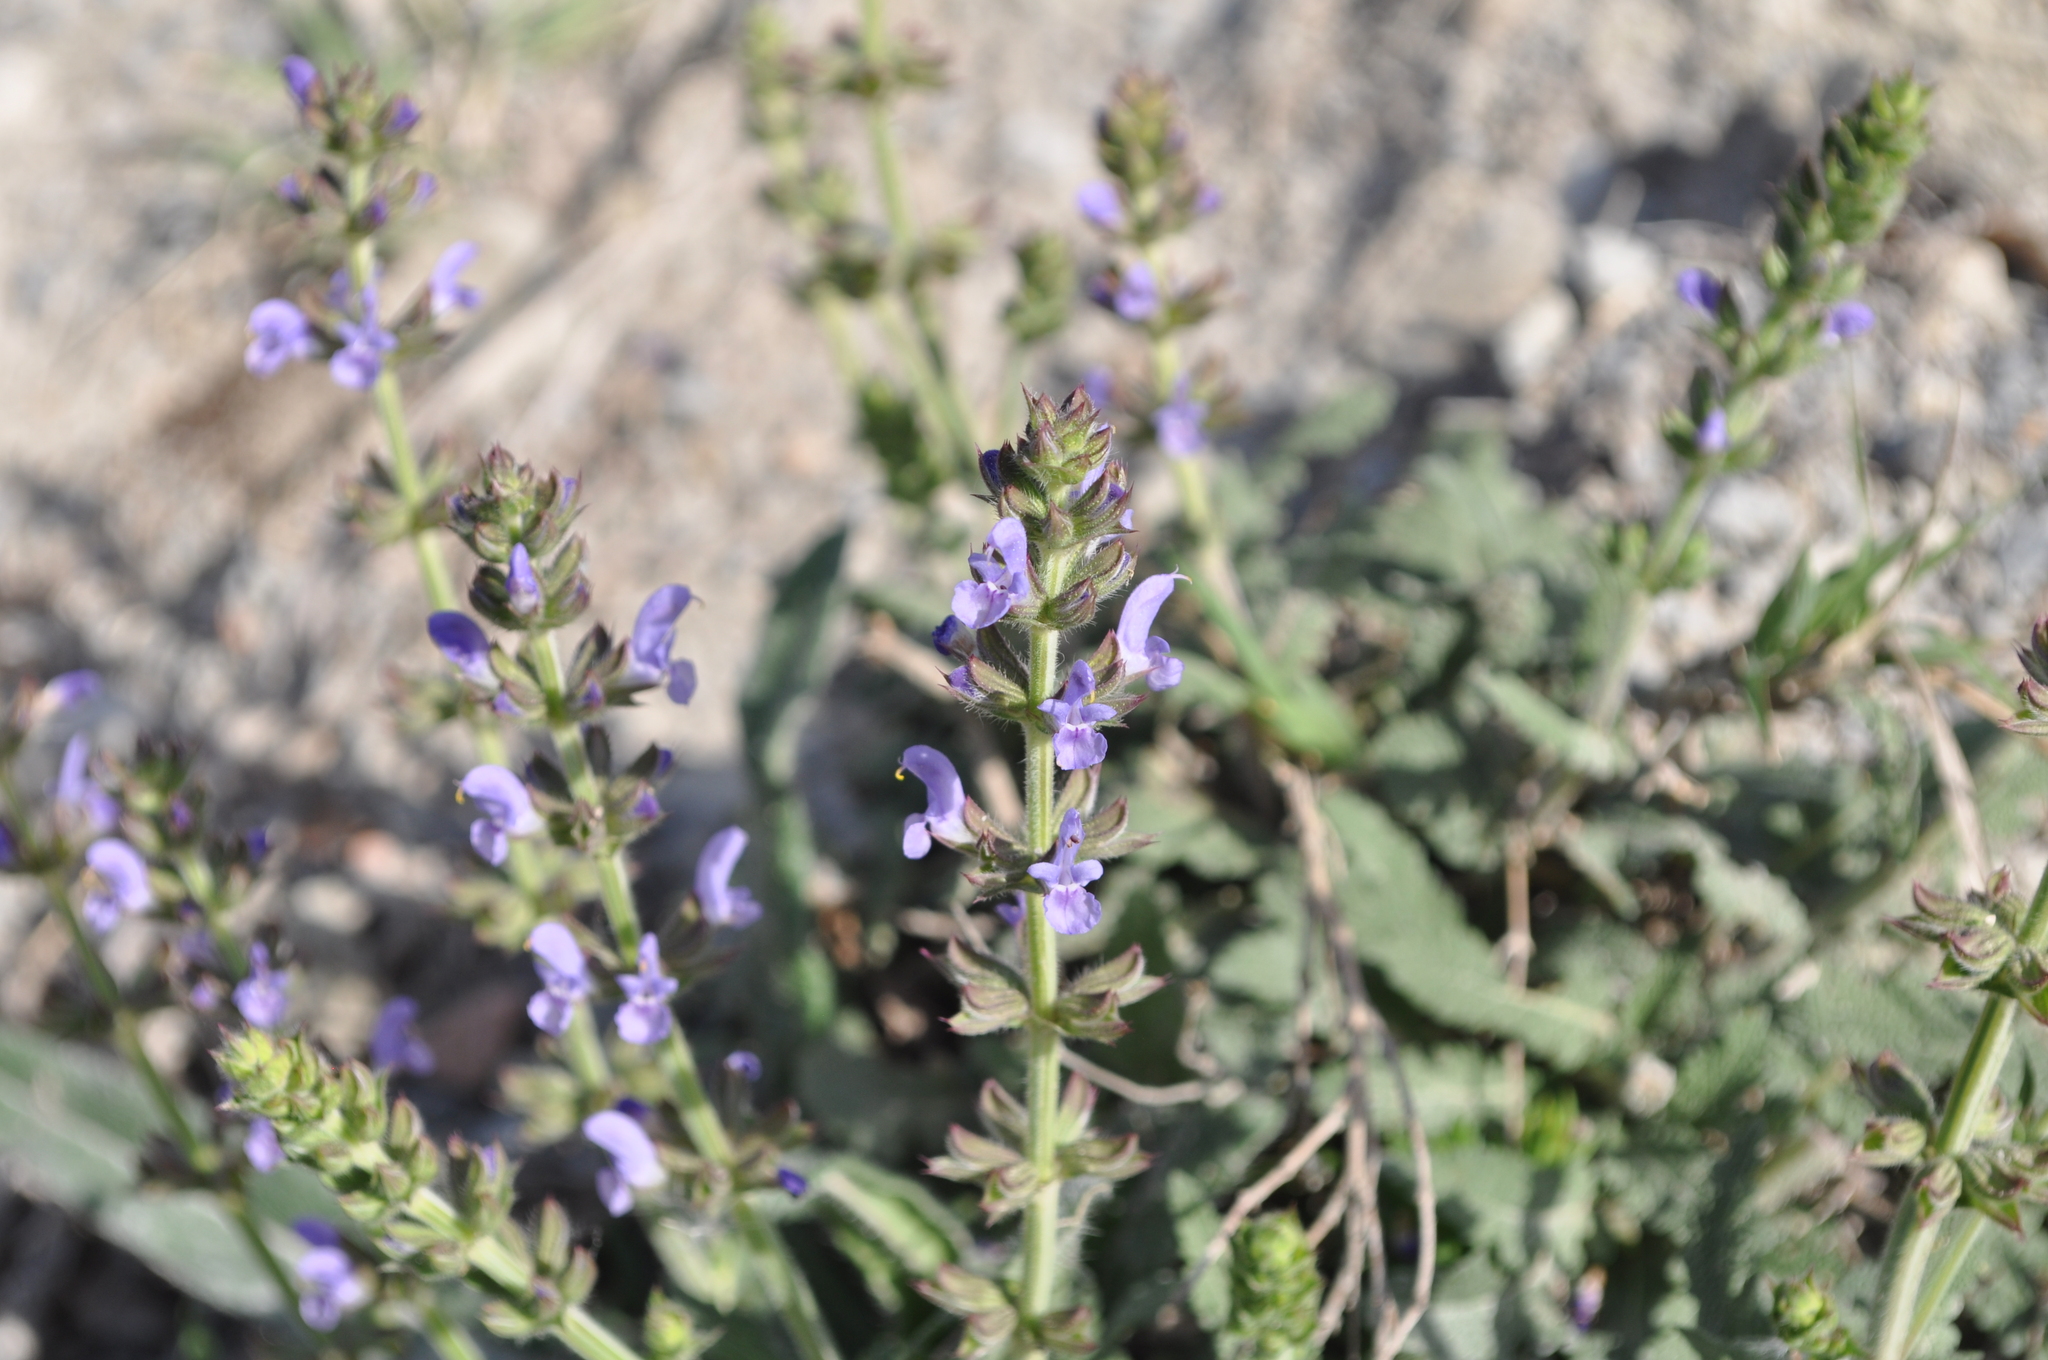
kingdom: Plantae
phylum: Tracheophyta
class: Magnoliopsida
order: Lamiales
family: Lamiaceae
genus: Salvia
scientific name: Salvia verbenaca
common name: Wild clary
